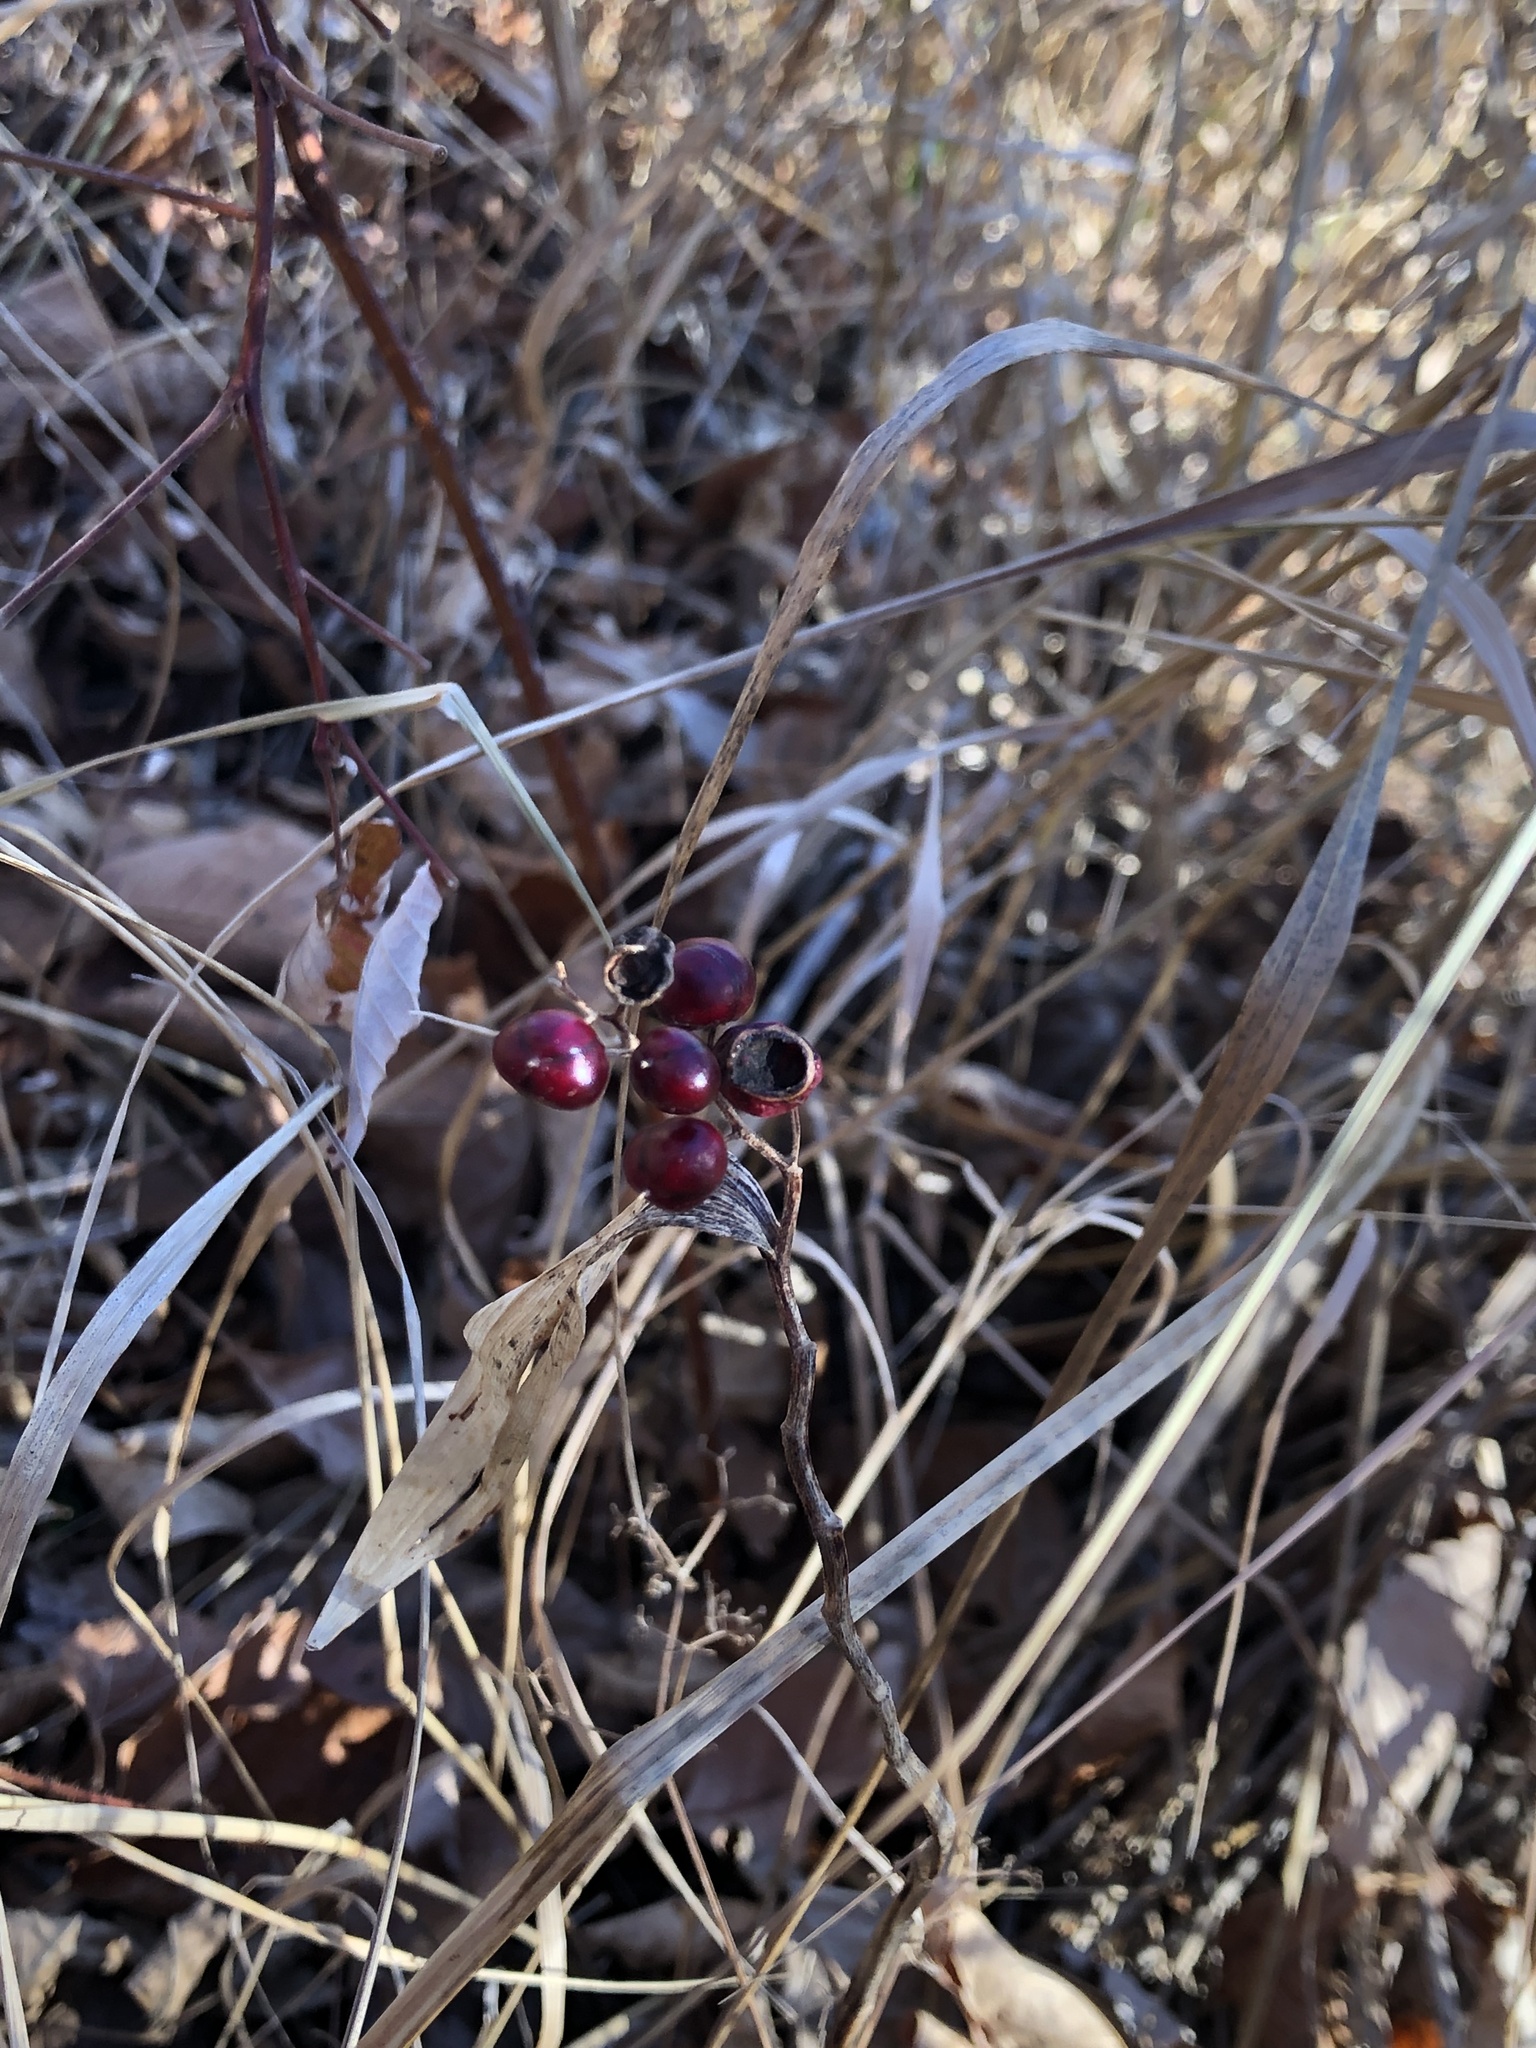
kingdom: Plantae
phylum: Tracheophyta
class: Liliopsida
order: Asparagales
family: Asparagaceae
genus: Maianthemum
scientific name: Maianthemum stellatum
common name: Little false solomon's seal
